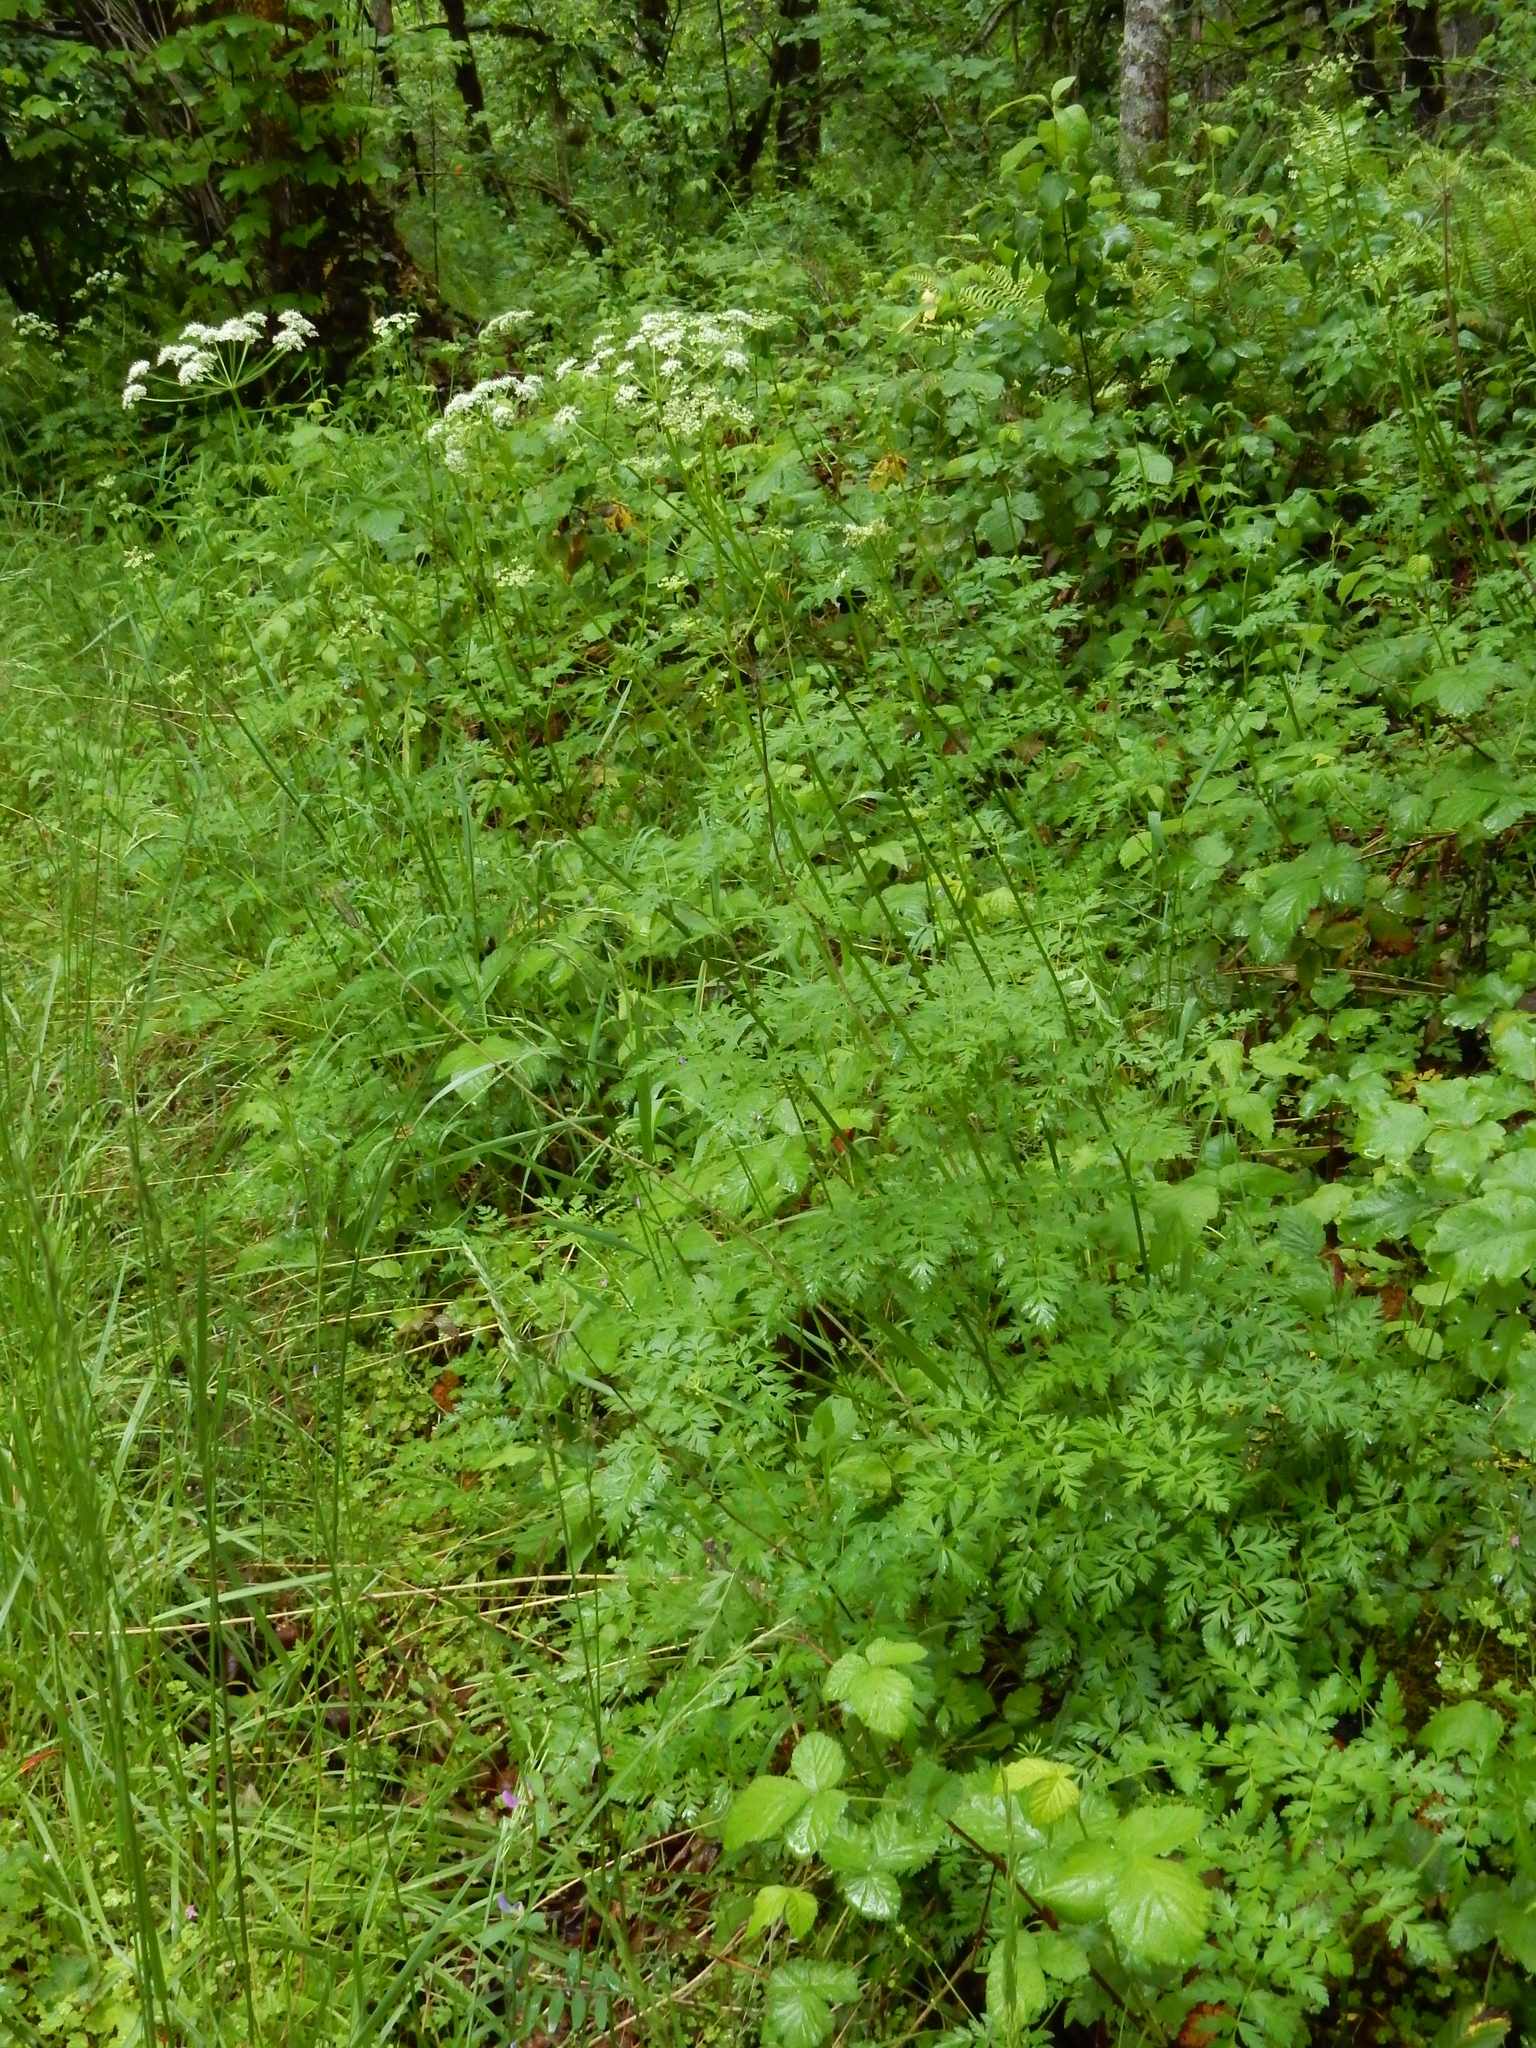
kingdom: Plantae
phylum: Tracheophyta
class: Magnoliopsida
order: Apiales
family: Apiaceae
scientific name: Apiaceae
